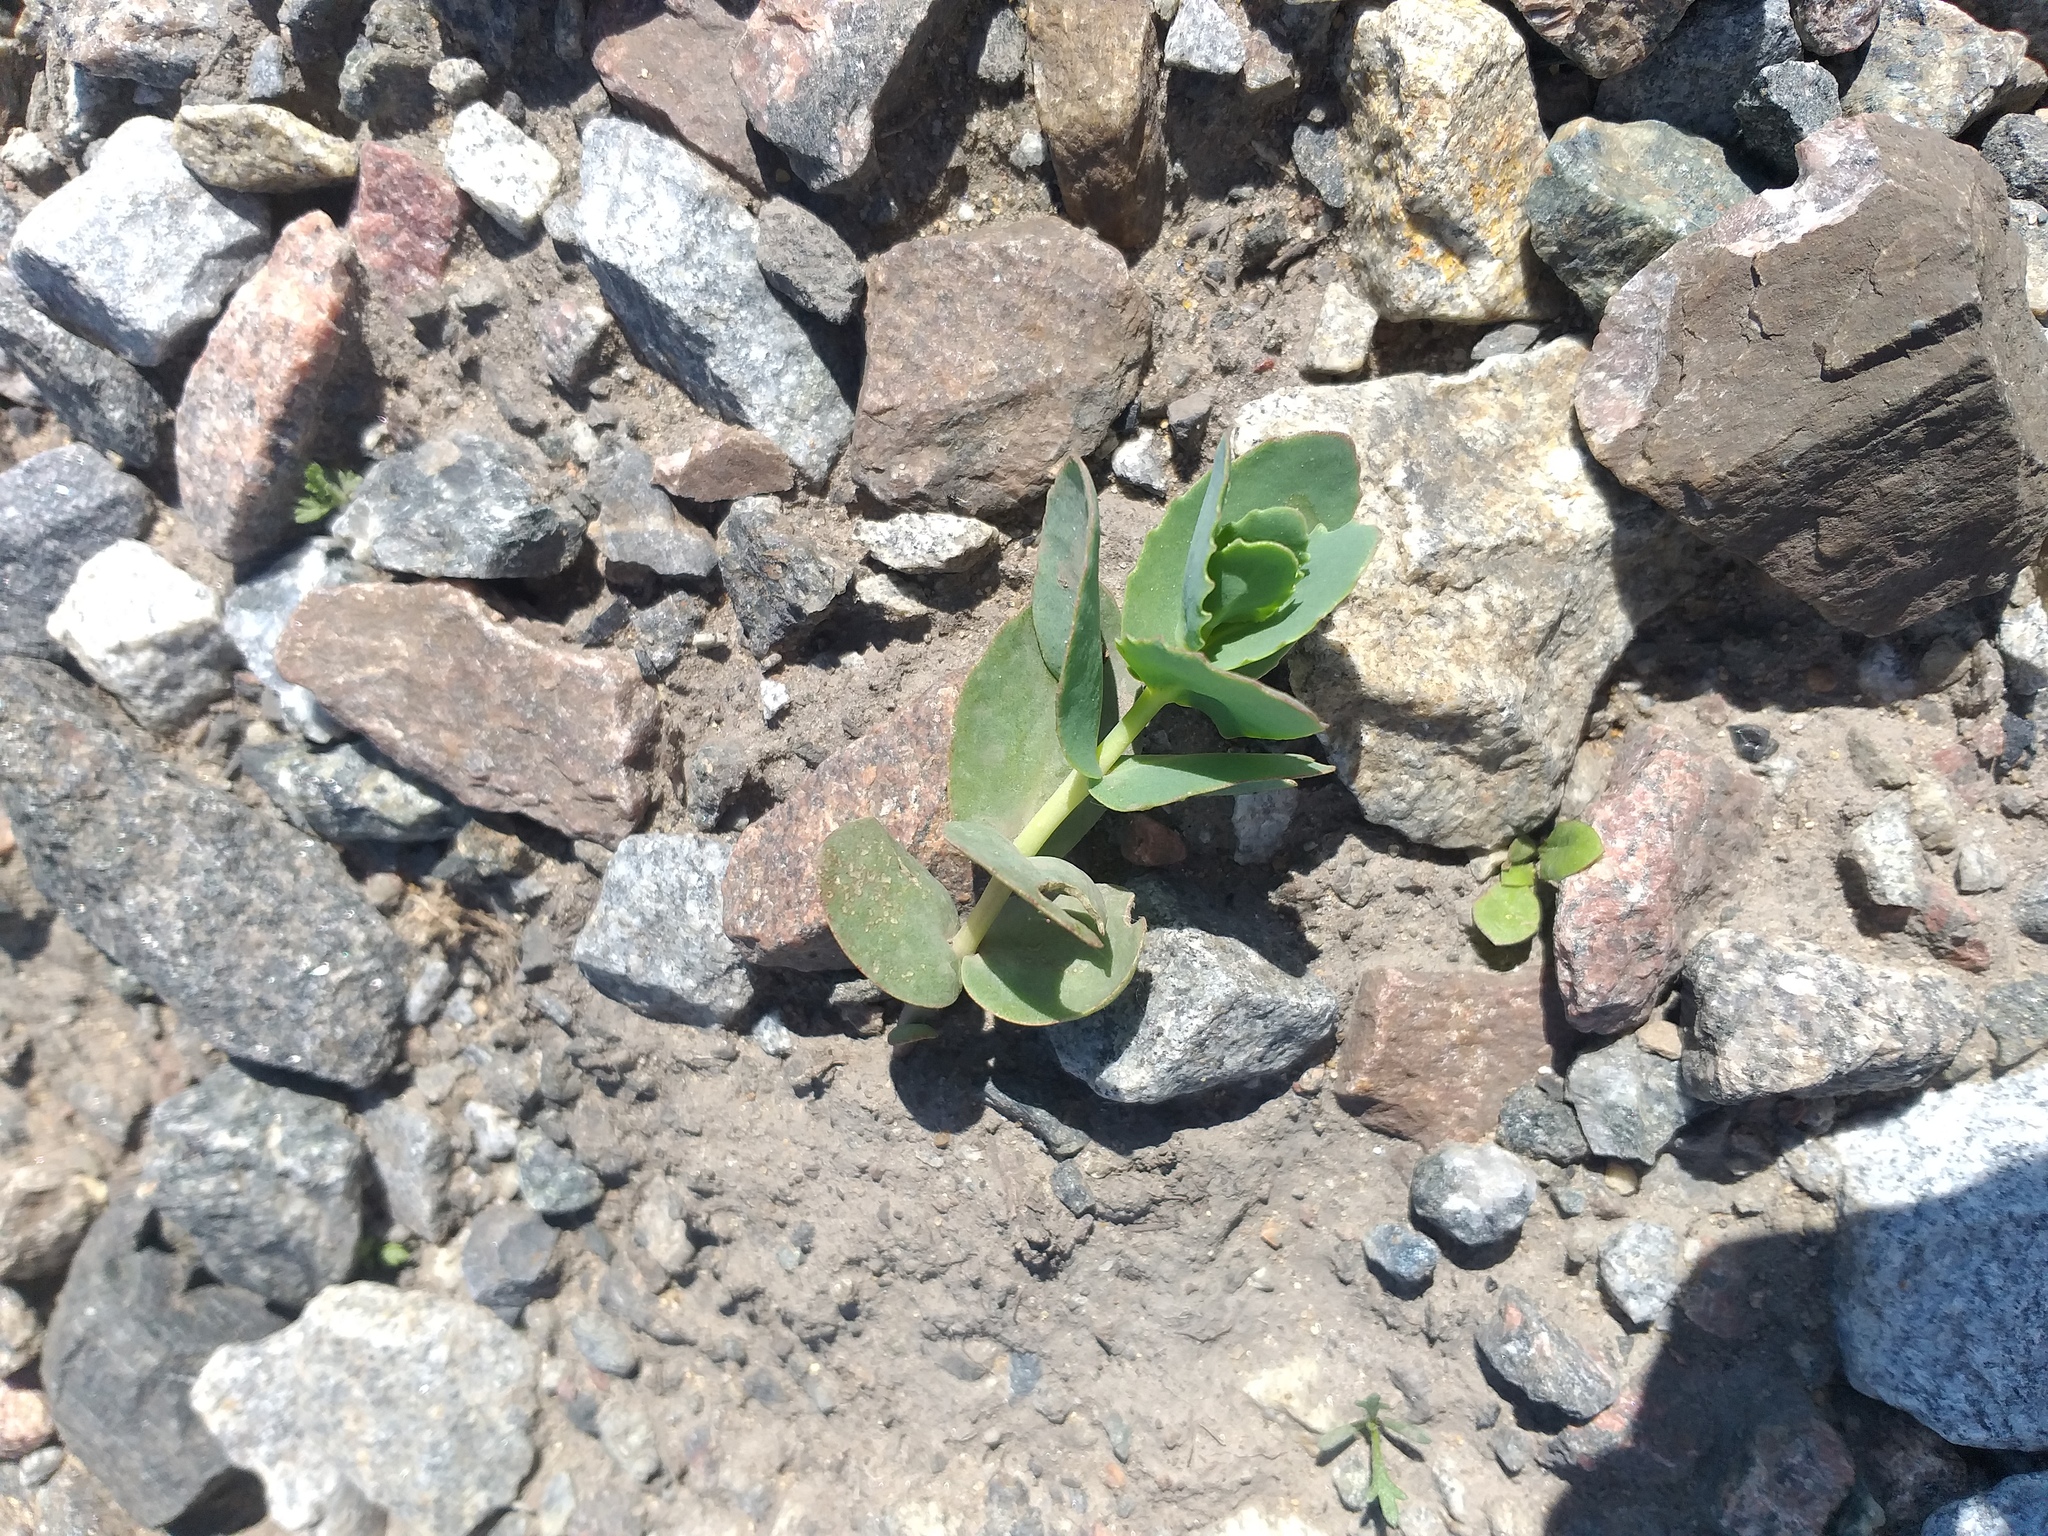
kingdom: Plantae
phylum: Tracheophyta
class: Magnoliopsida
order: Saxifragales
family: Crassulaceae
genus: Hylotelephium
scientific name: Hylotelephium maximum
